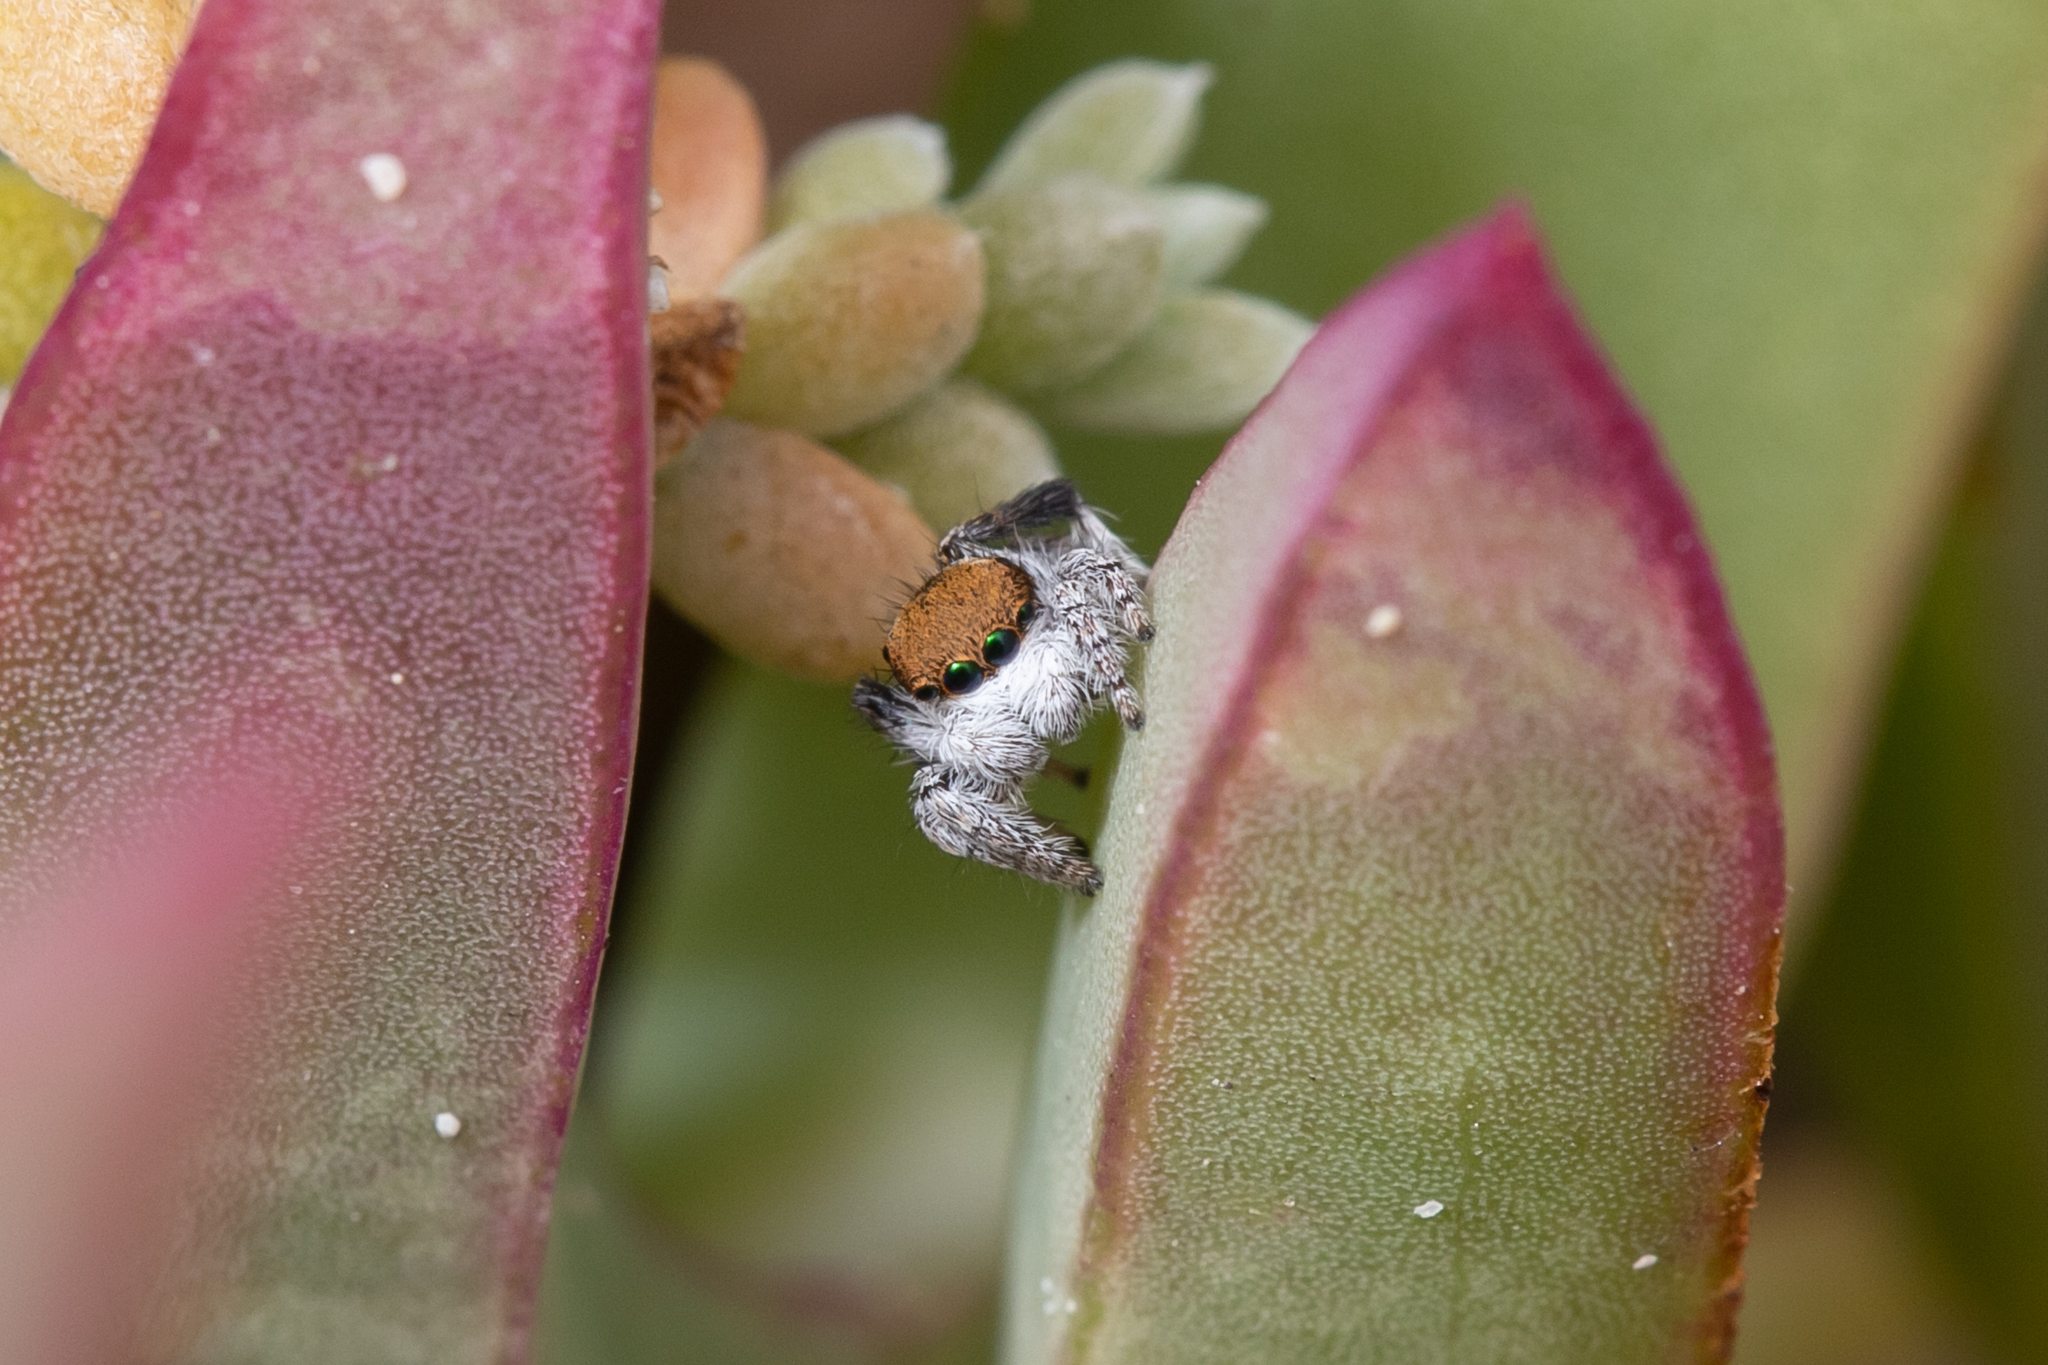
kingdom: Animalia
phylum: Arthropoda
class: Arachnida
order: Araneae
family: Salticidae
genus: Maratus
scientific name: Maratus albus
